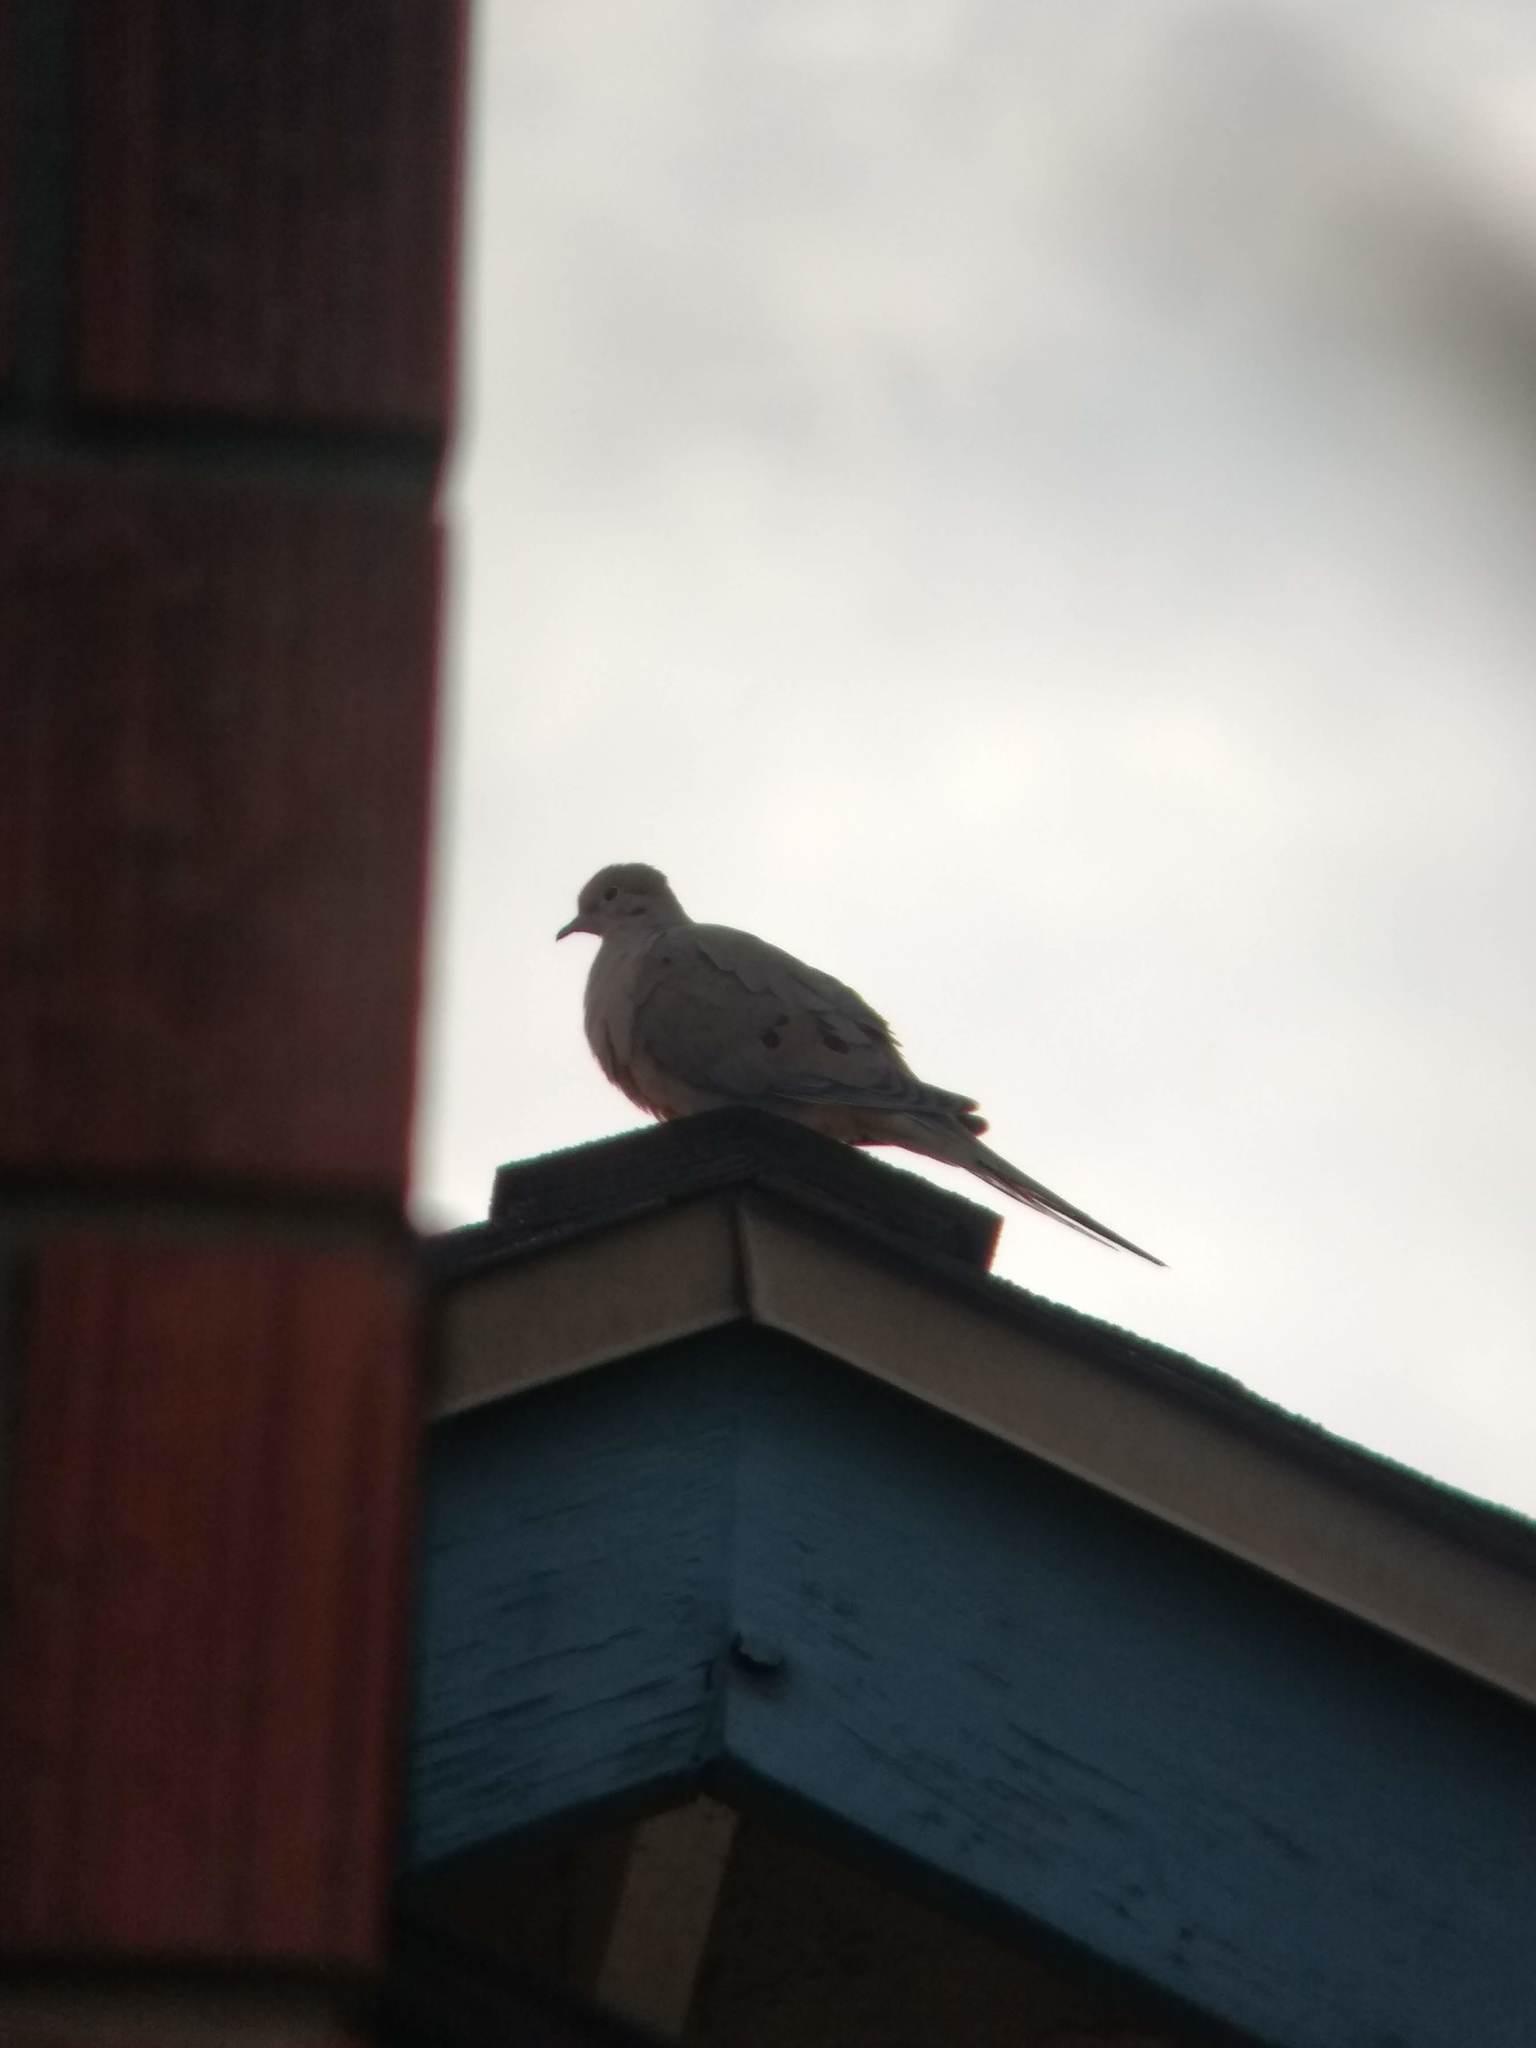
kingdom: Animalia
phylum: Chordata
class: Aves
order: Columbiformes
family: Columbidae
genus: Zenaida
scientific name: Zenaida macroura
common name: Mourning dove
